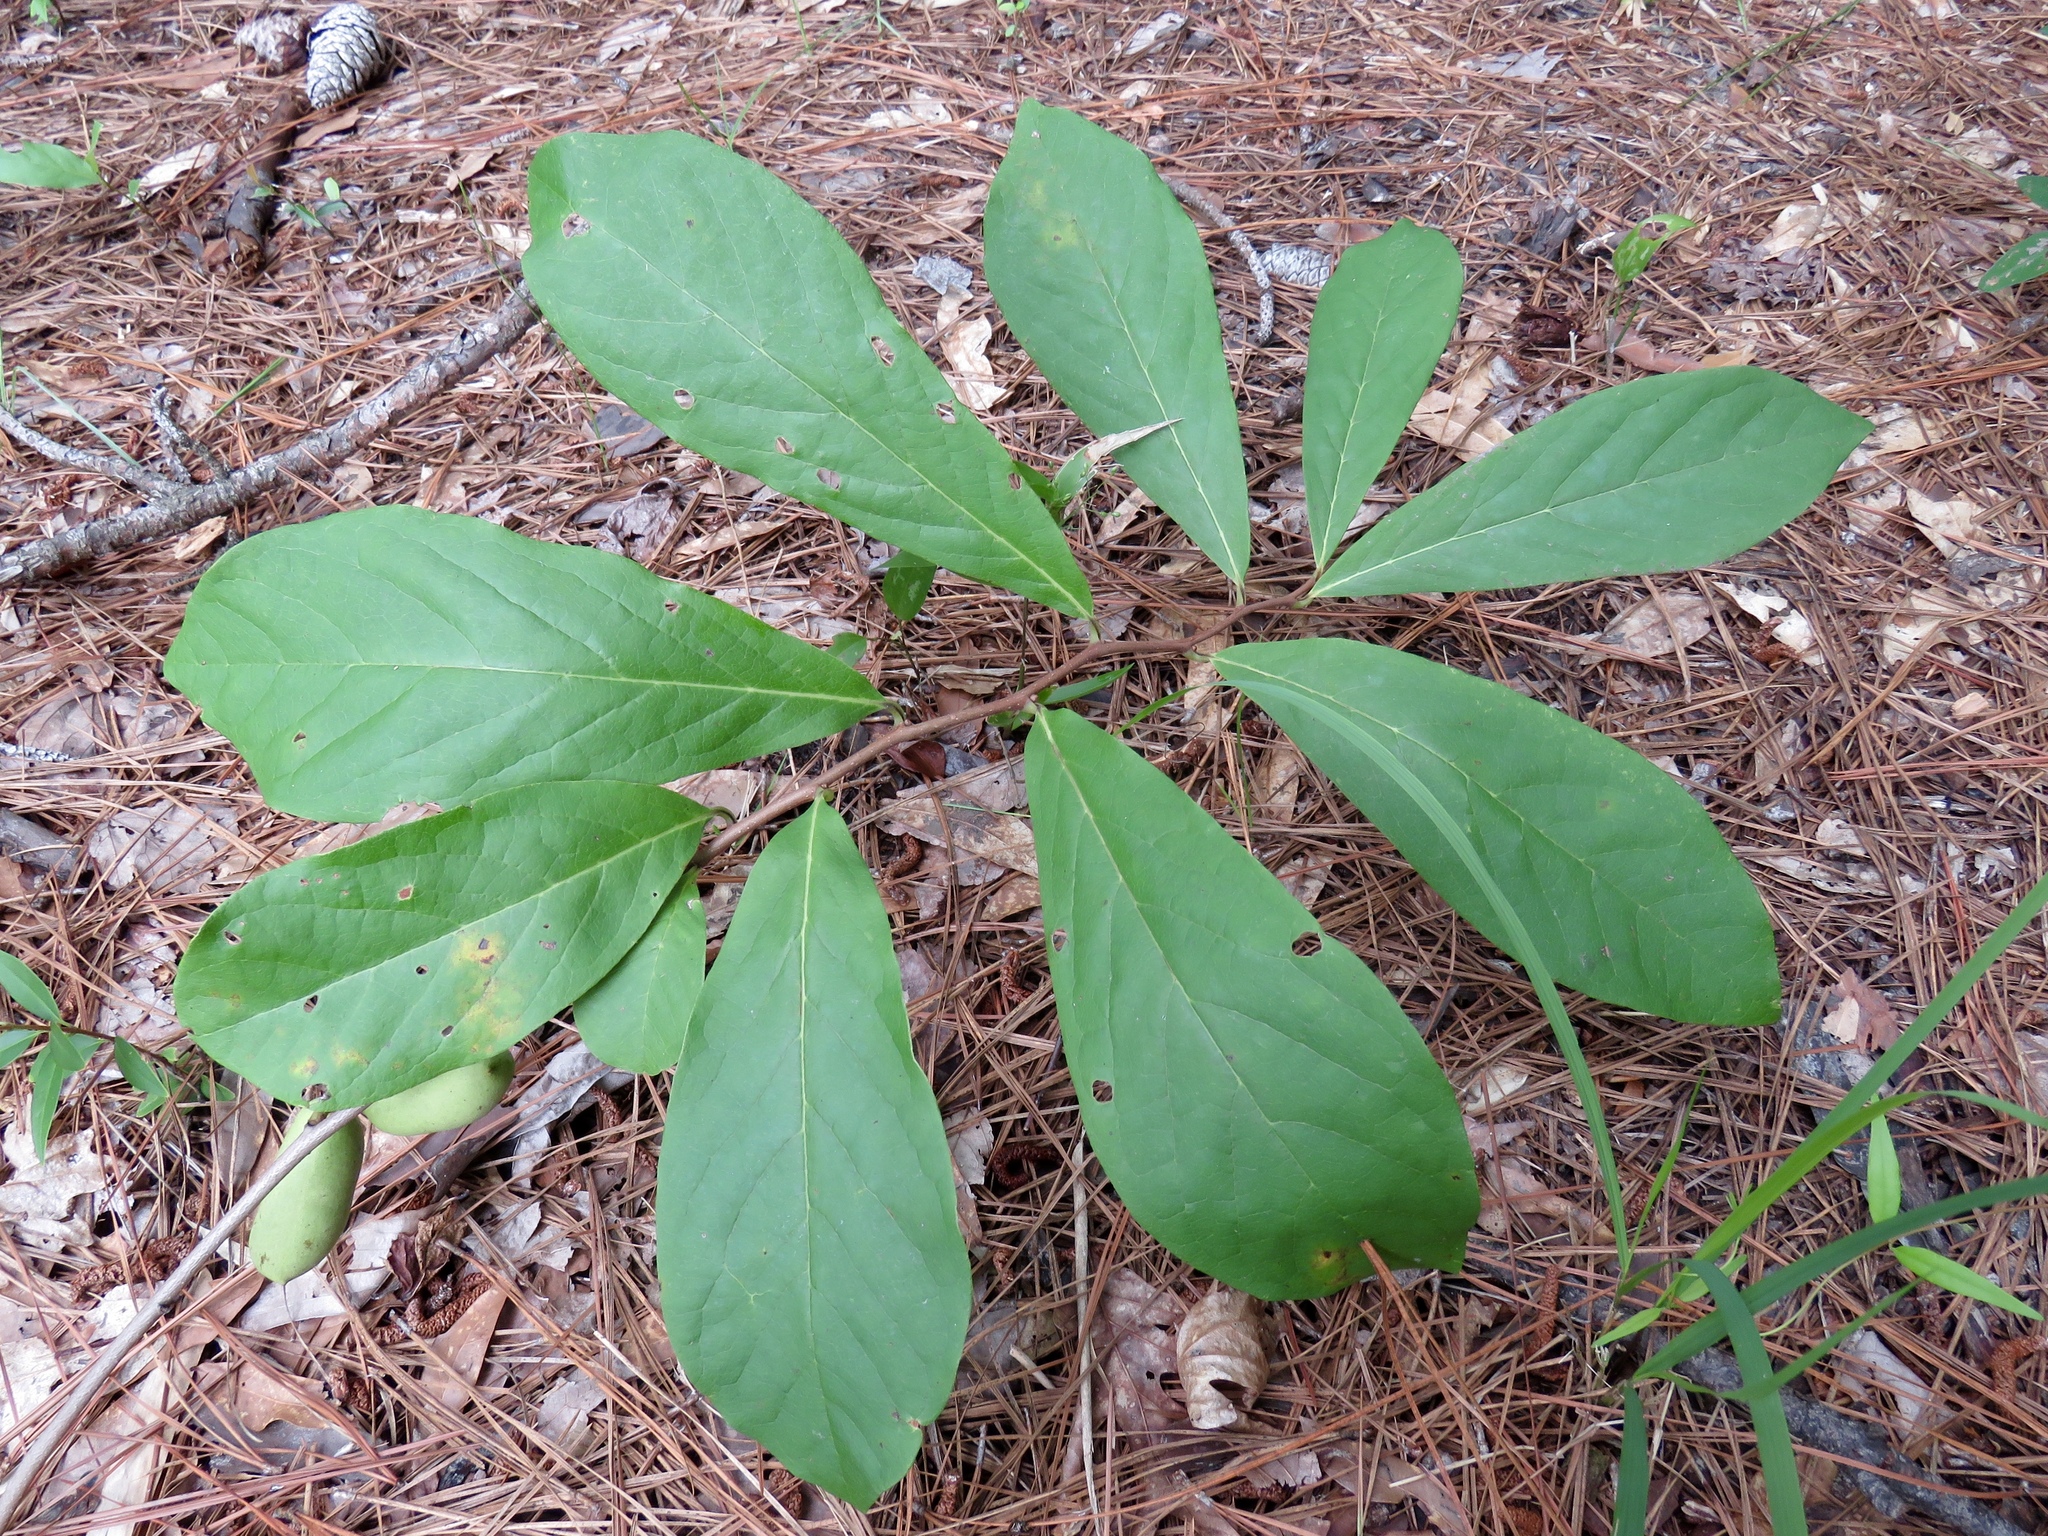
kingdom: Plantae
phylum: Tracheophyta
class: Magnoliopsida
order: Magnoliales
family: Annonaceae
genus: Asimina
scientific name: Asimina parviflora
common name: Dwarf pawpaw
